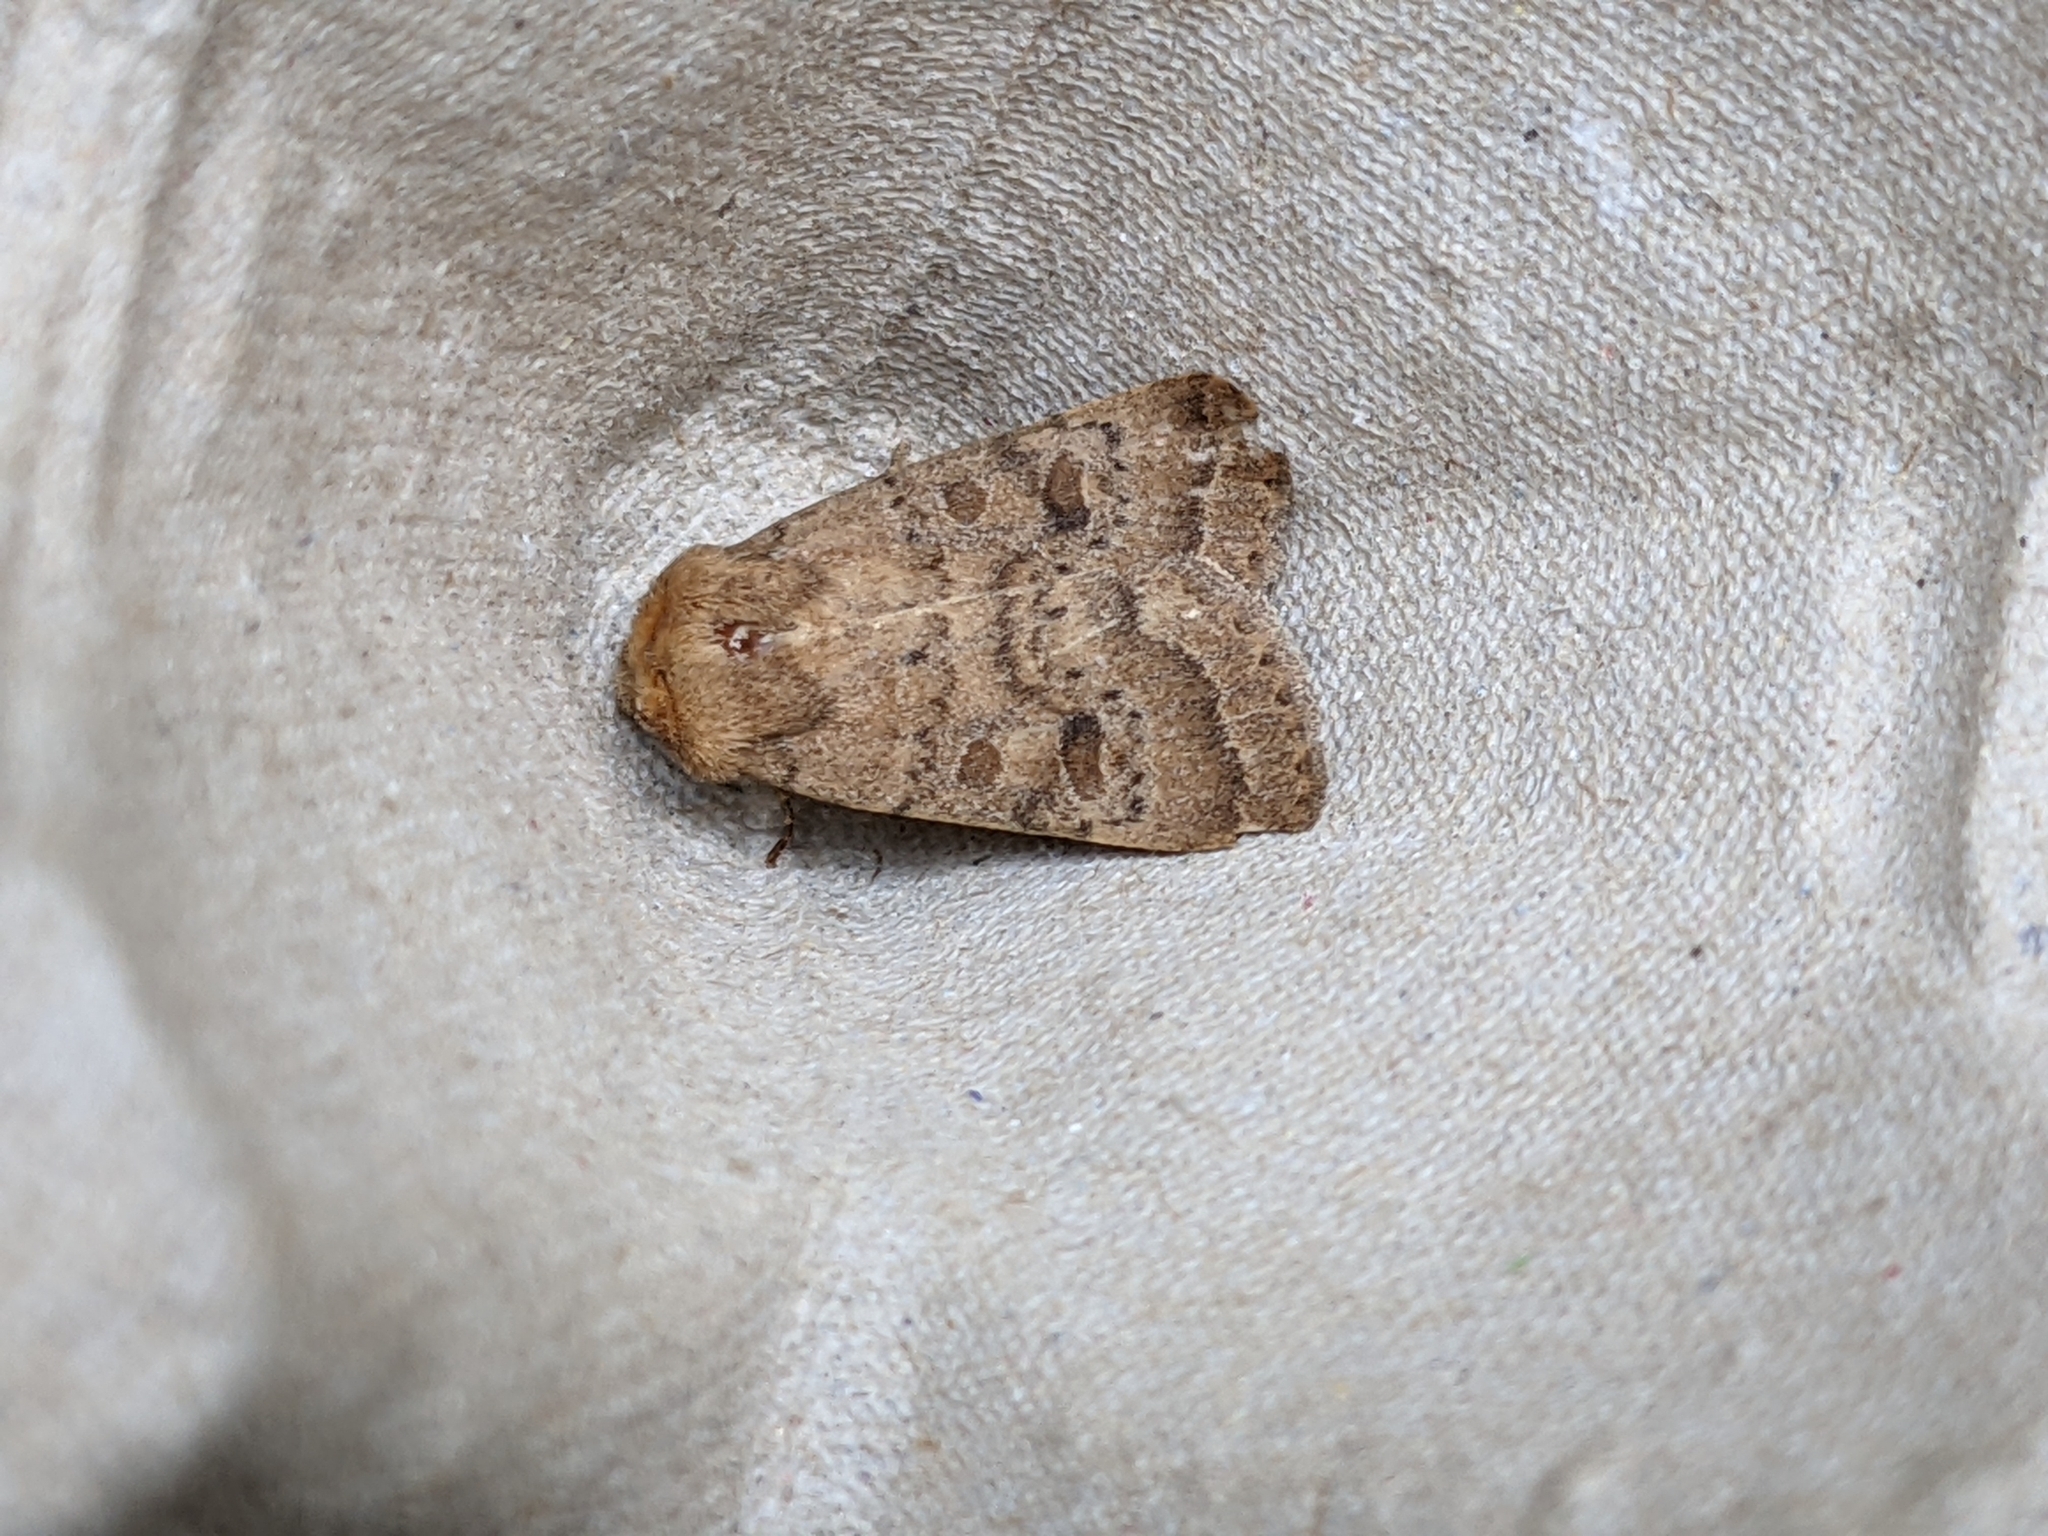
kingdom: Animalia
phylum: Arthropoda
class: Insecta
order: Lepidoptera
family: Noctuidae
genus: Hoplodrina
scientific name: Hoplodrina octogenaria
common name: Uncertain
